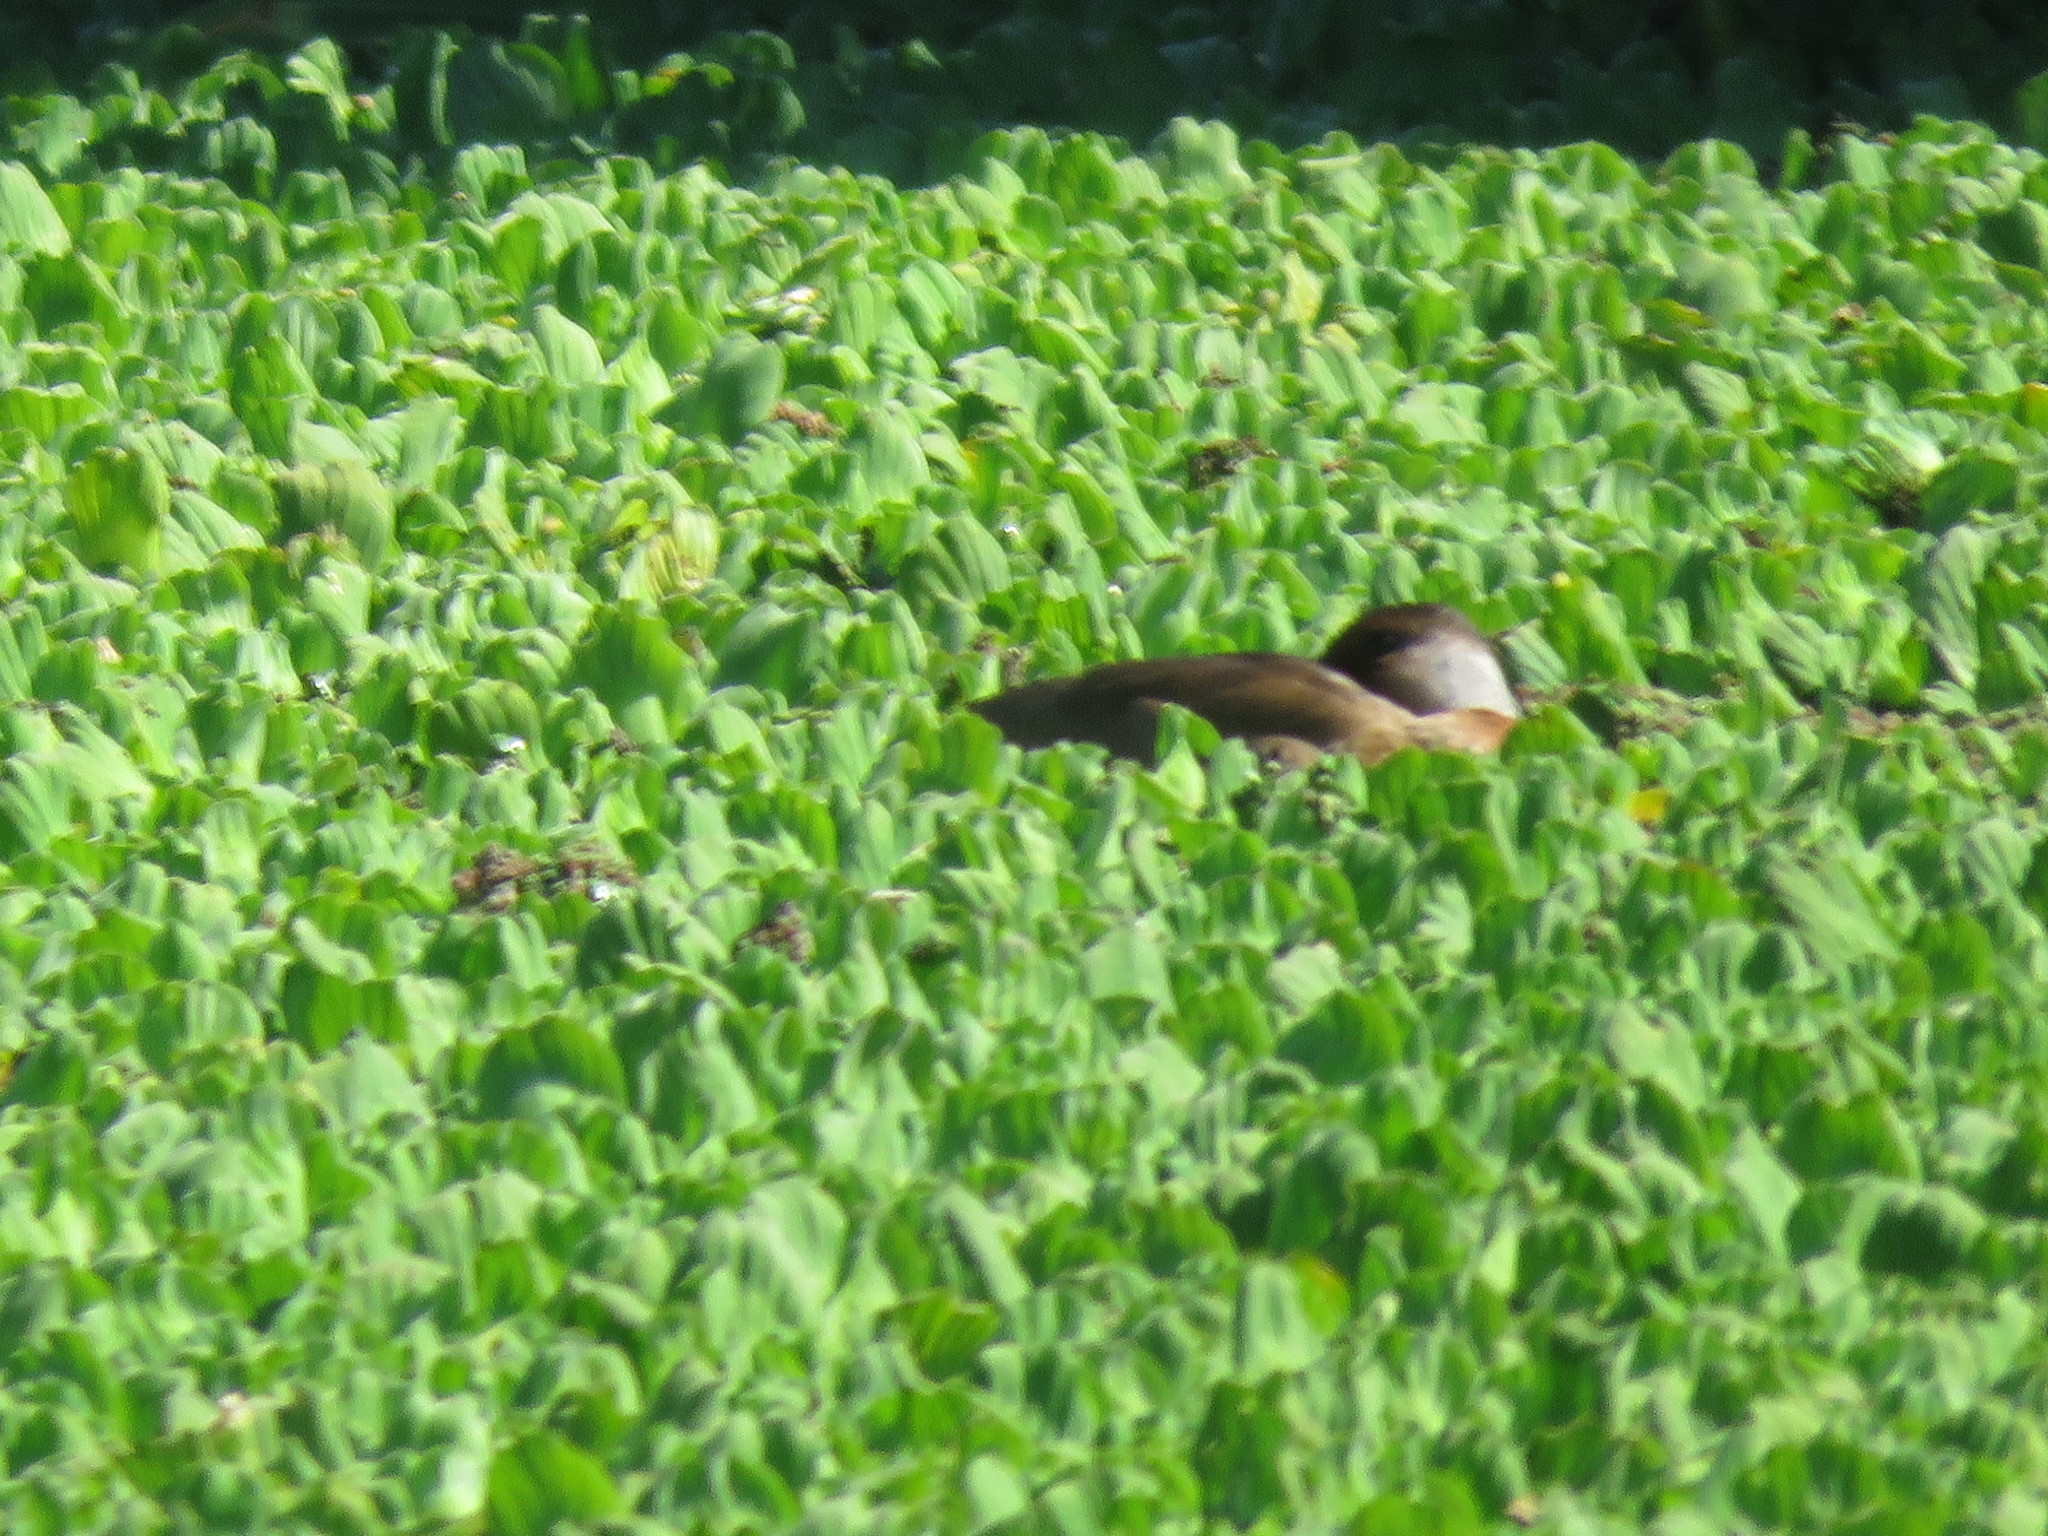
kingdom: Animalia
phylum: Chordata
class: Aves
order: Anseriformes
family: Anatidae
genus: Amazonetta
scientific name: Amazonetta brasiliensis
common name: Brazilian teal
